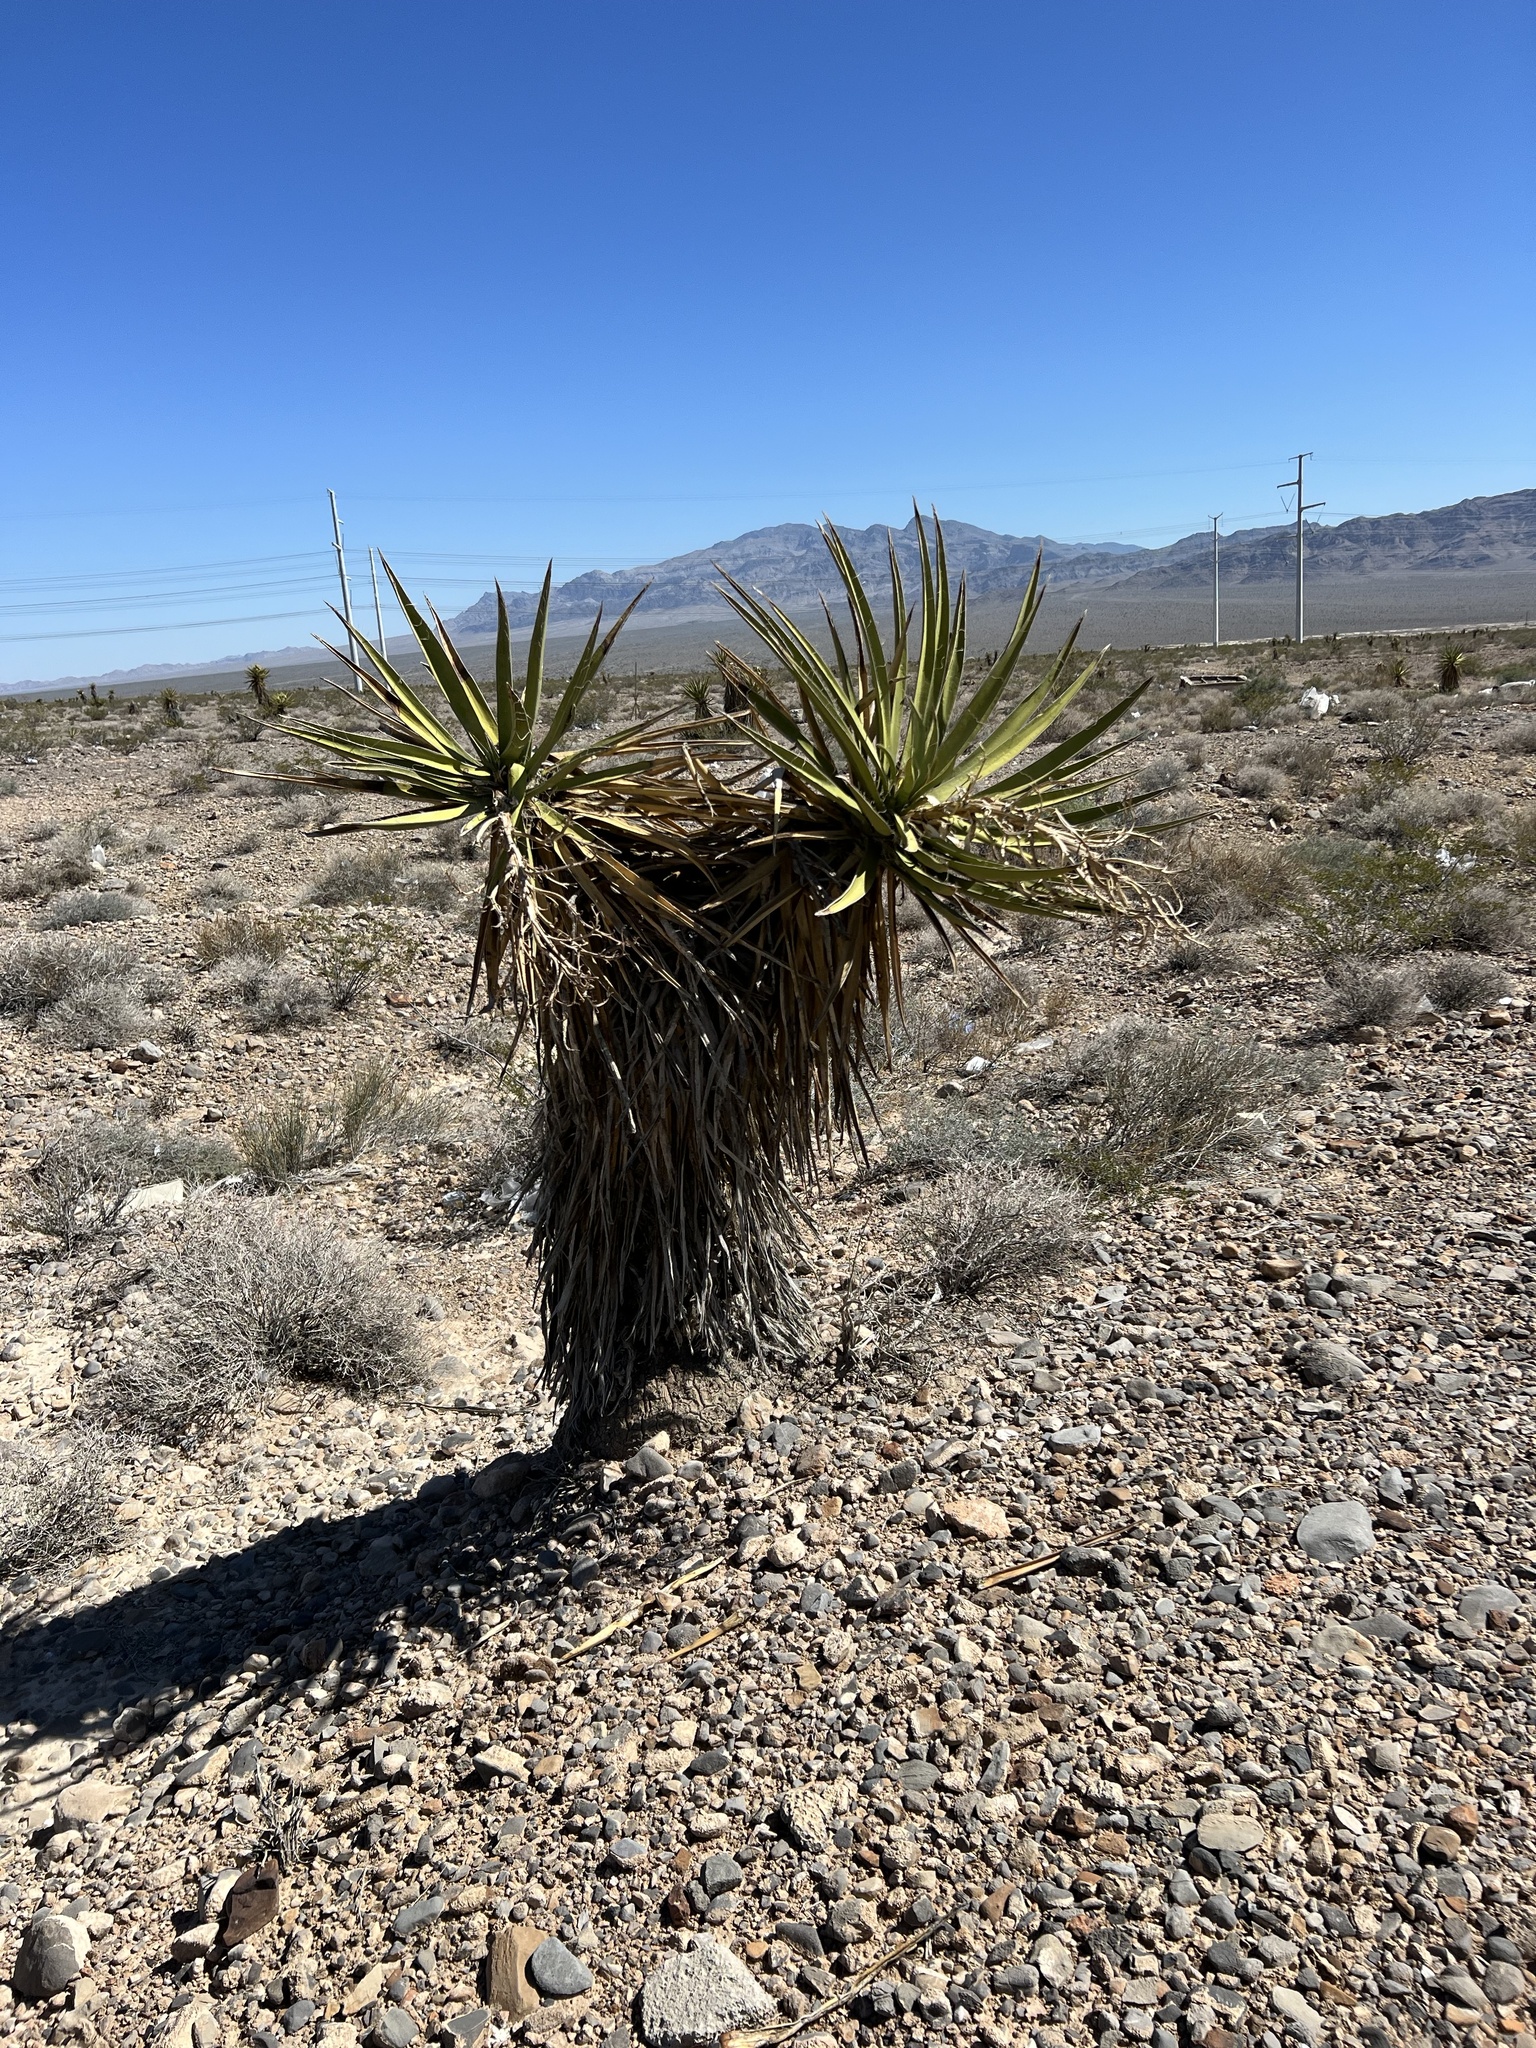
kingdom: Plantae
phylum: Tracheophyta
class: Liliopsida
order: Asparagales
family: Asparagaceae
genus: Yucca
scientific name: Yucca schidigera
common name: Mojave yucca
